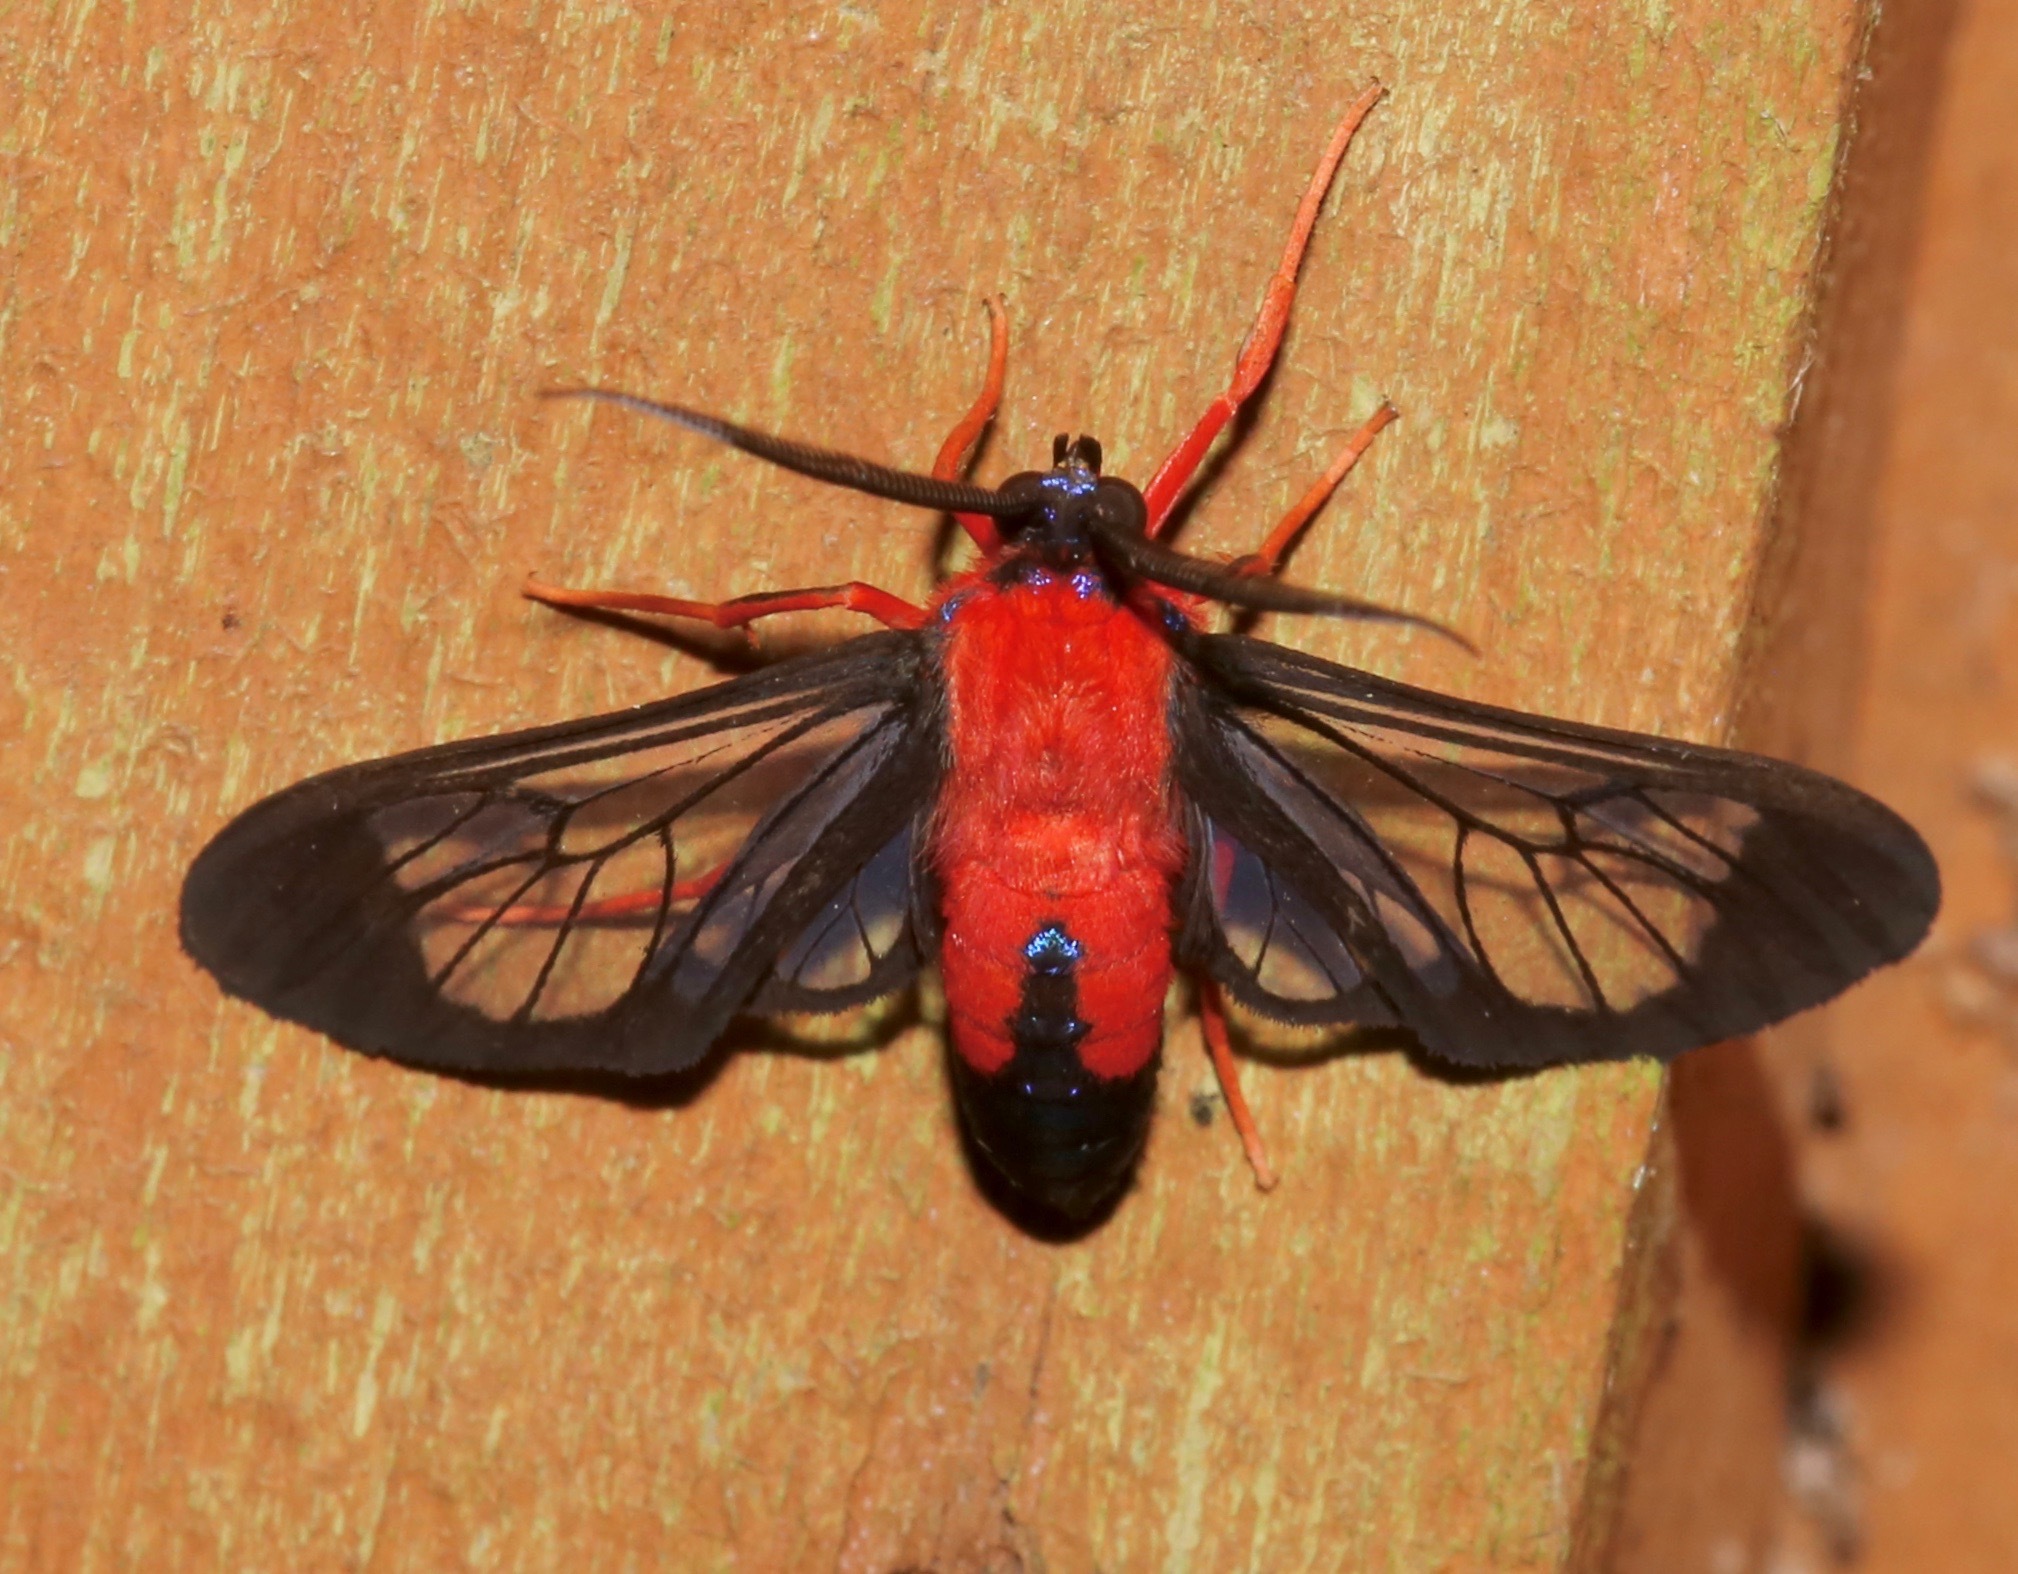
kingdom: Animalia
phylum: Arthropoda
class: Insecta
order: Lepidoptera
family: Erebidae
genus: Cosmosoma
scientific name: Cosmosoma myrodora
